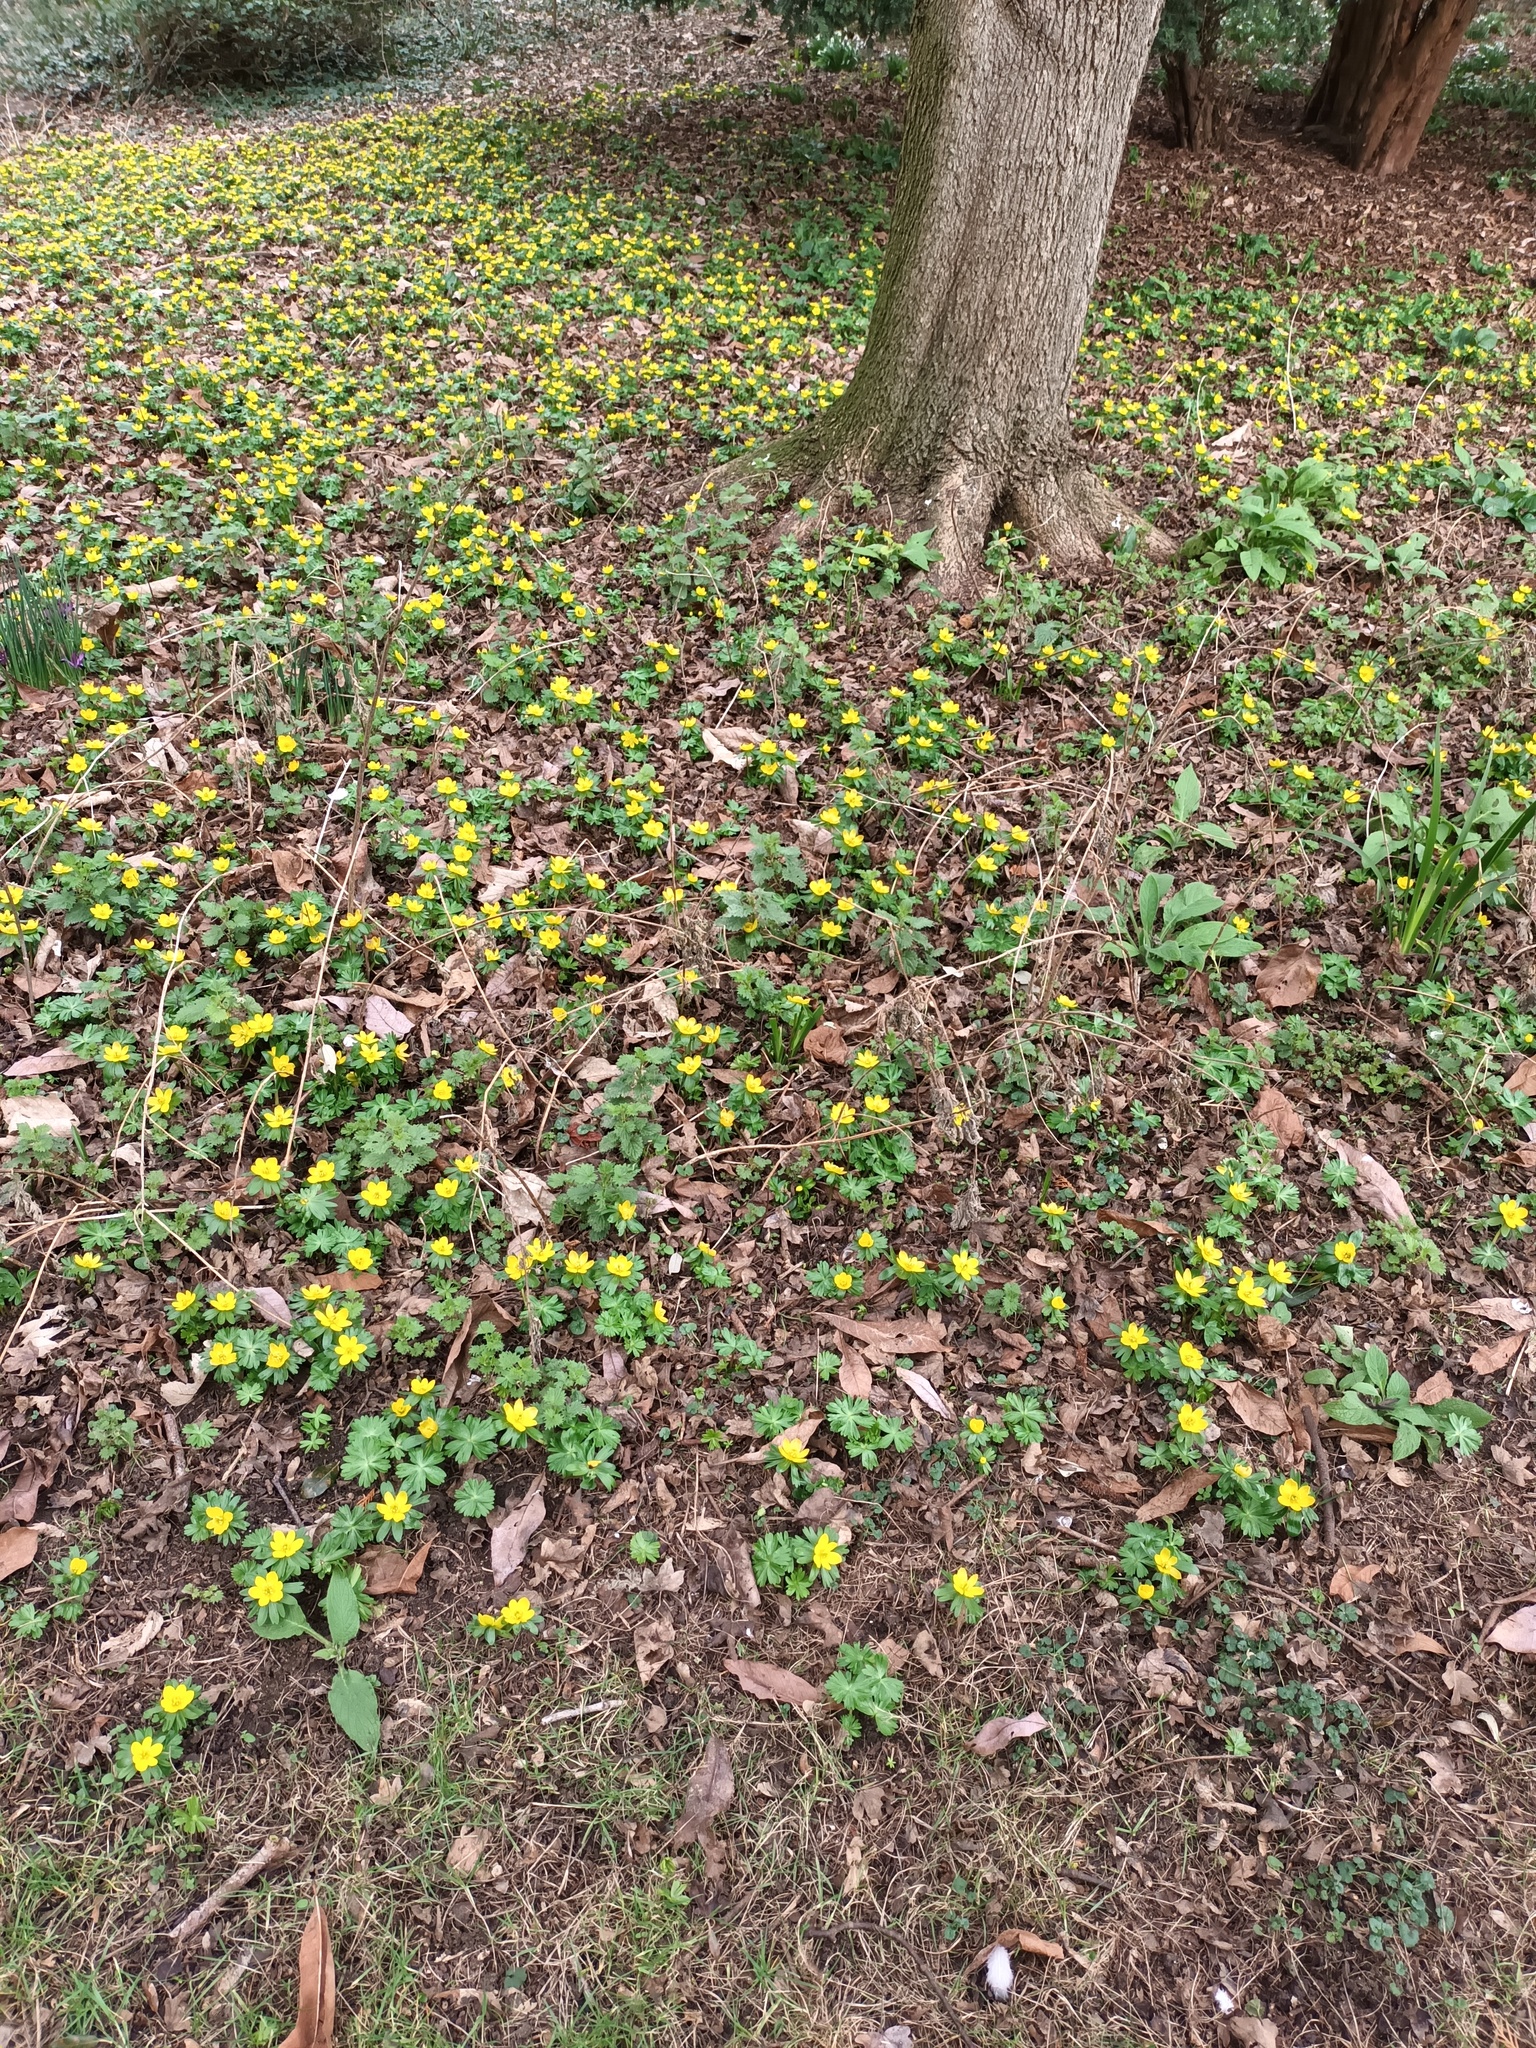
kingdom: Plantae
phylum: Tracheophyta
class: Magnoliopsida
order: Ranunculales
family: Ranunculaceae
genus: Eranthis
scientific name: Eranthis hyemalis
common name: Winter aconite
